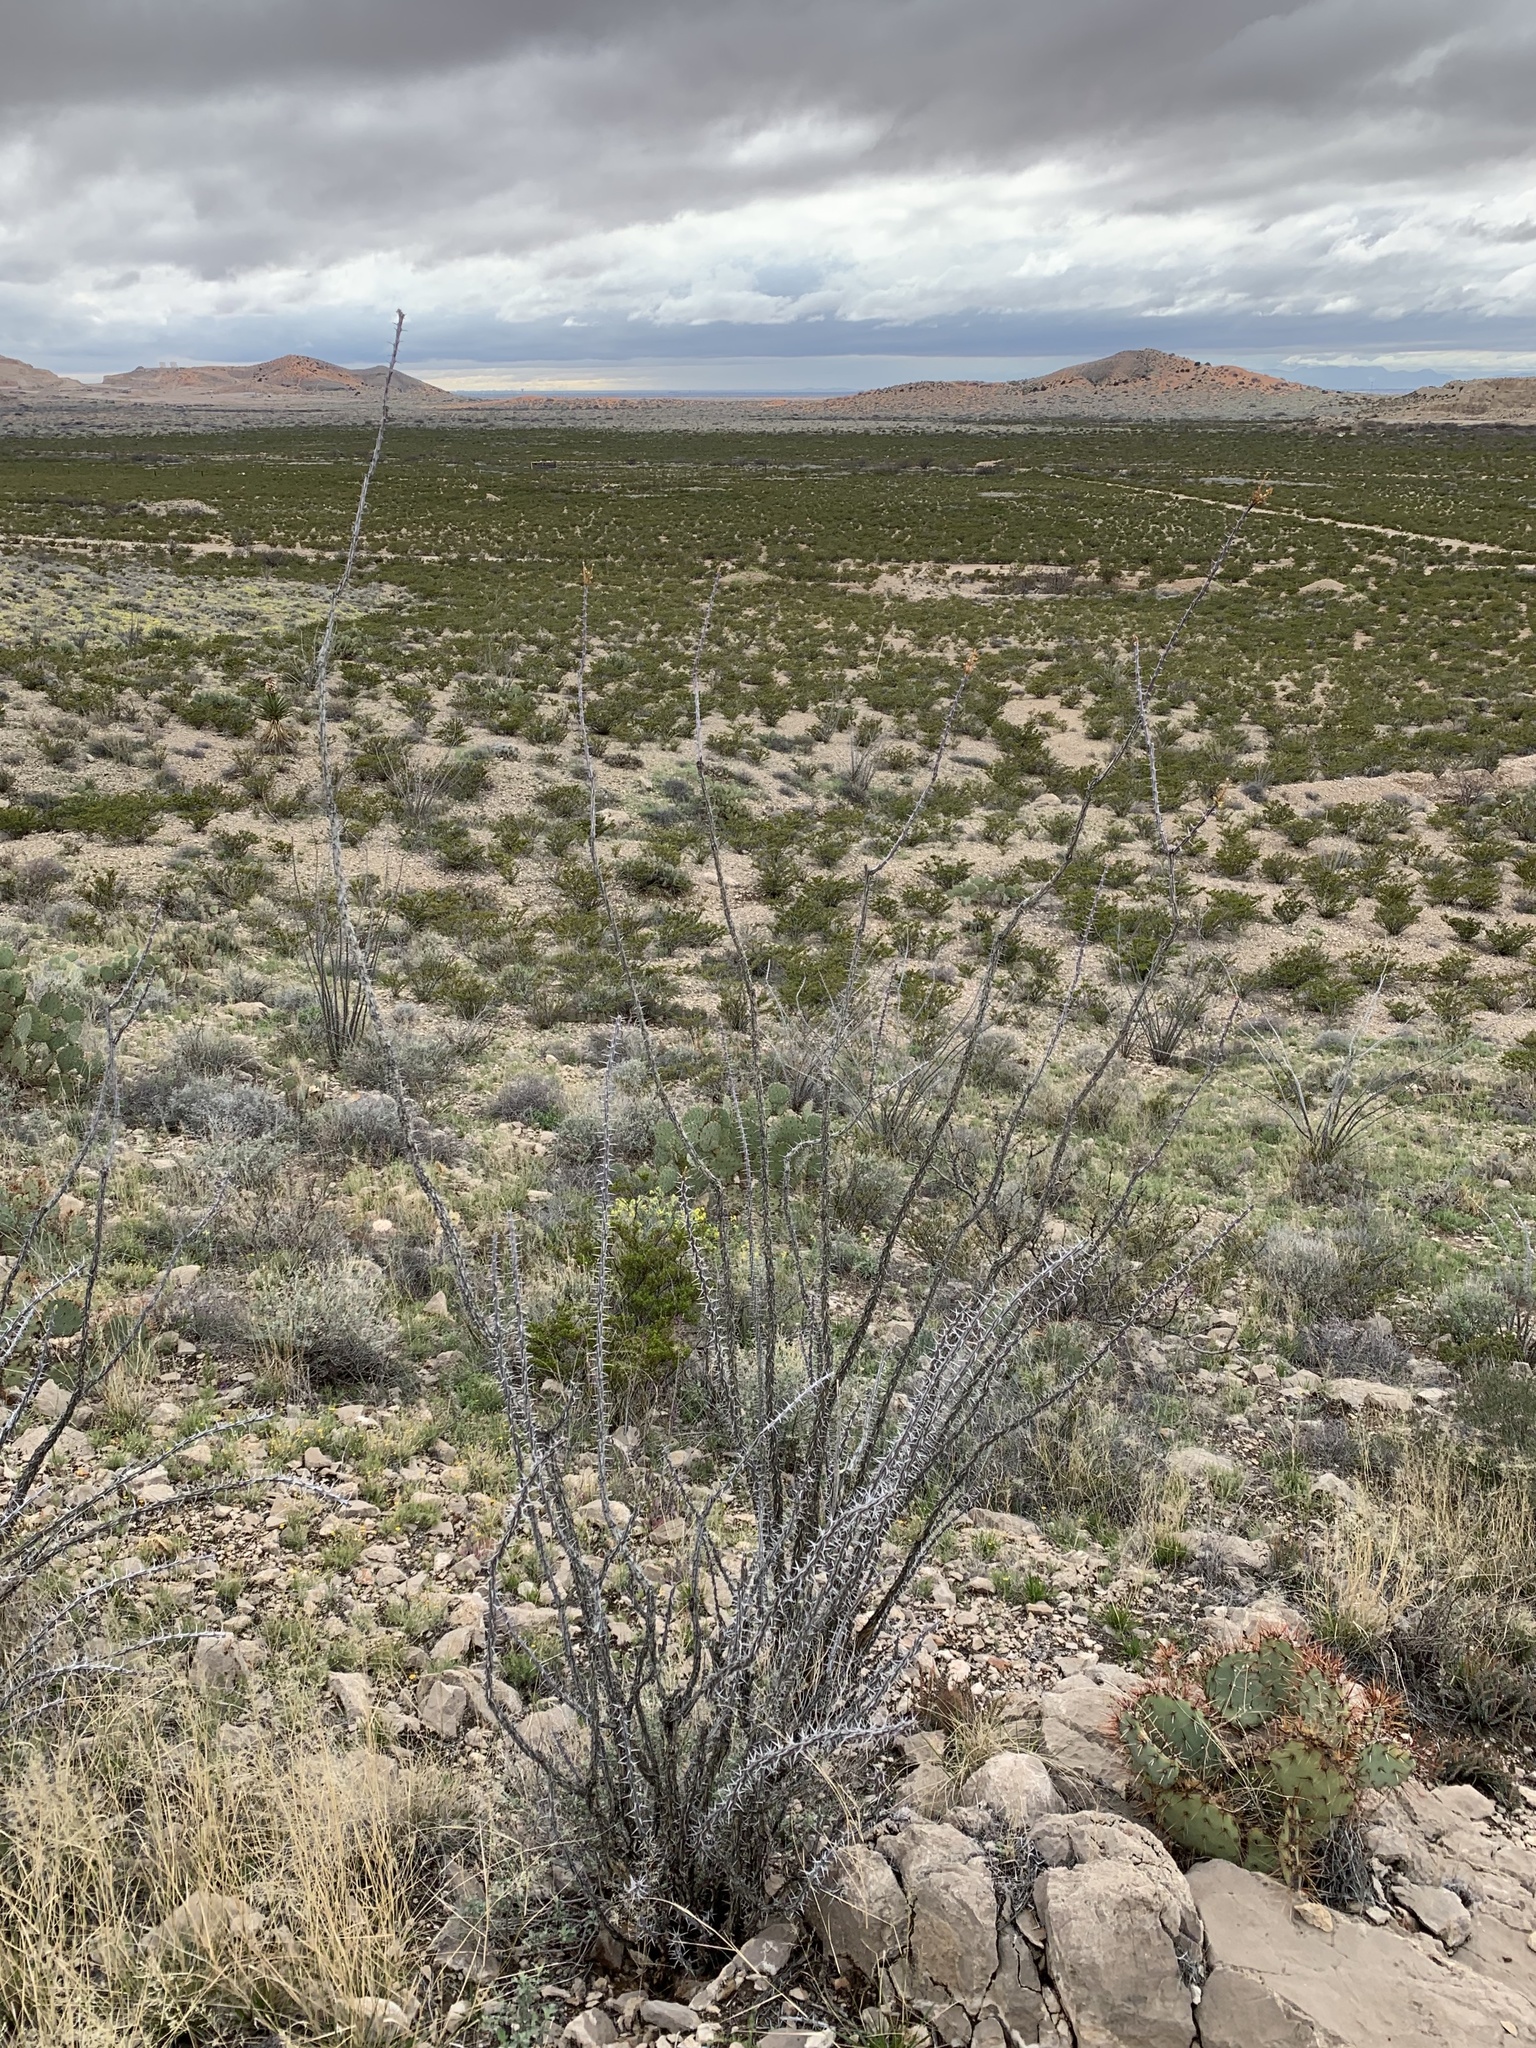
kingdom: Plantae
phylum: Tracheophyta
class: Magnoliopsida
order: Ericales
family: Fouquieriaceae
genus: Fouquieria
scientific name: Fouquieria splendens
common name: Vine-cactus
